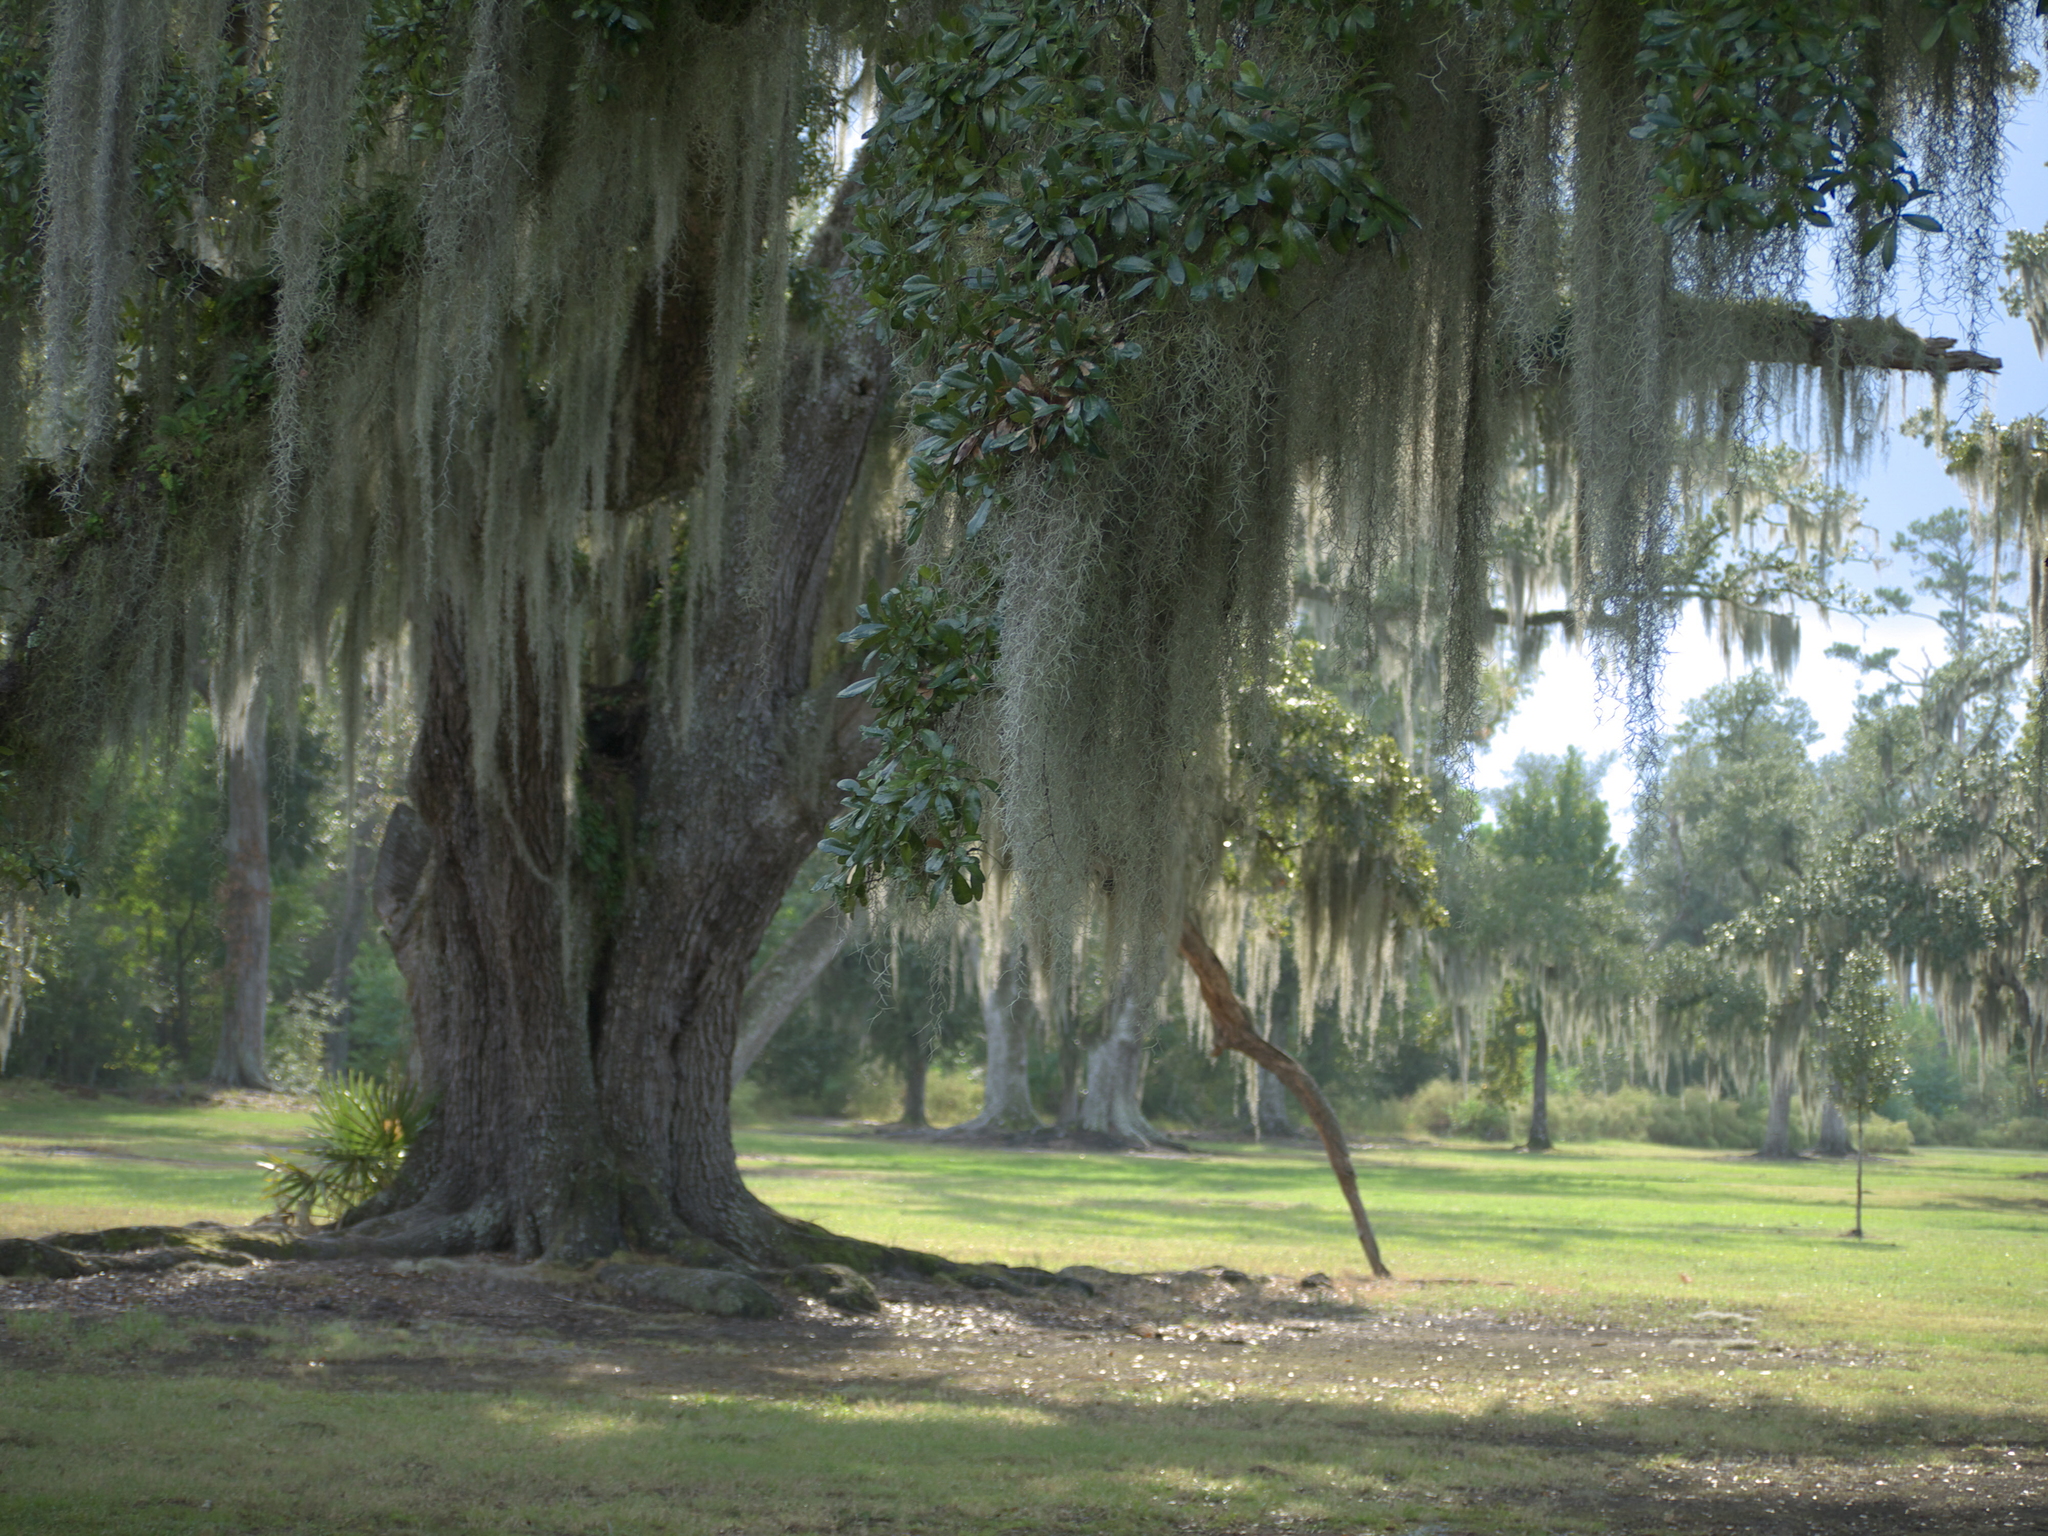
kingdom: Plantae
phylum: Tracheophyta
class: Liliopsida
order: Poales
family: Bromeliaceae
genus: Tillandsia
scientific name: Tillandsia usneoides
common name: Spanish moss
